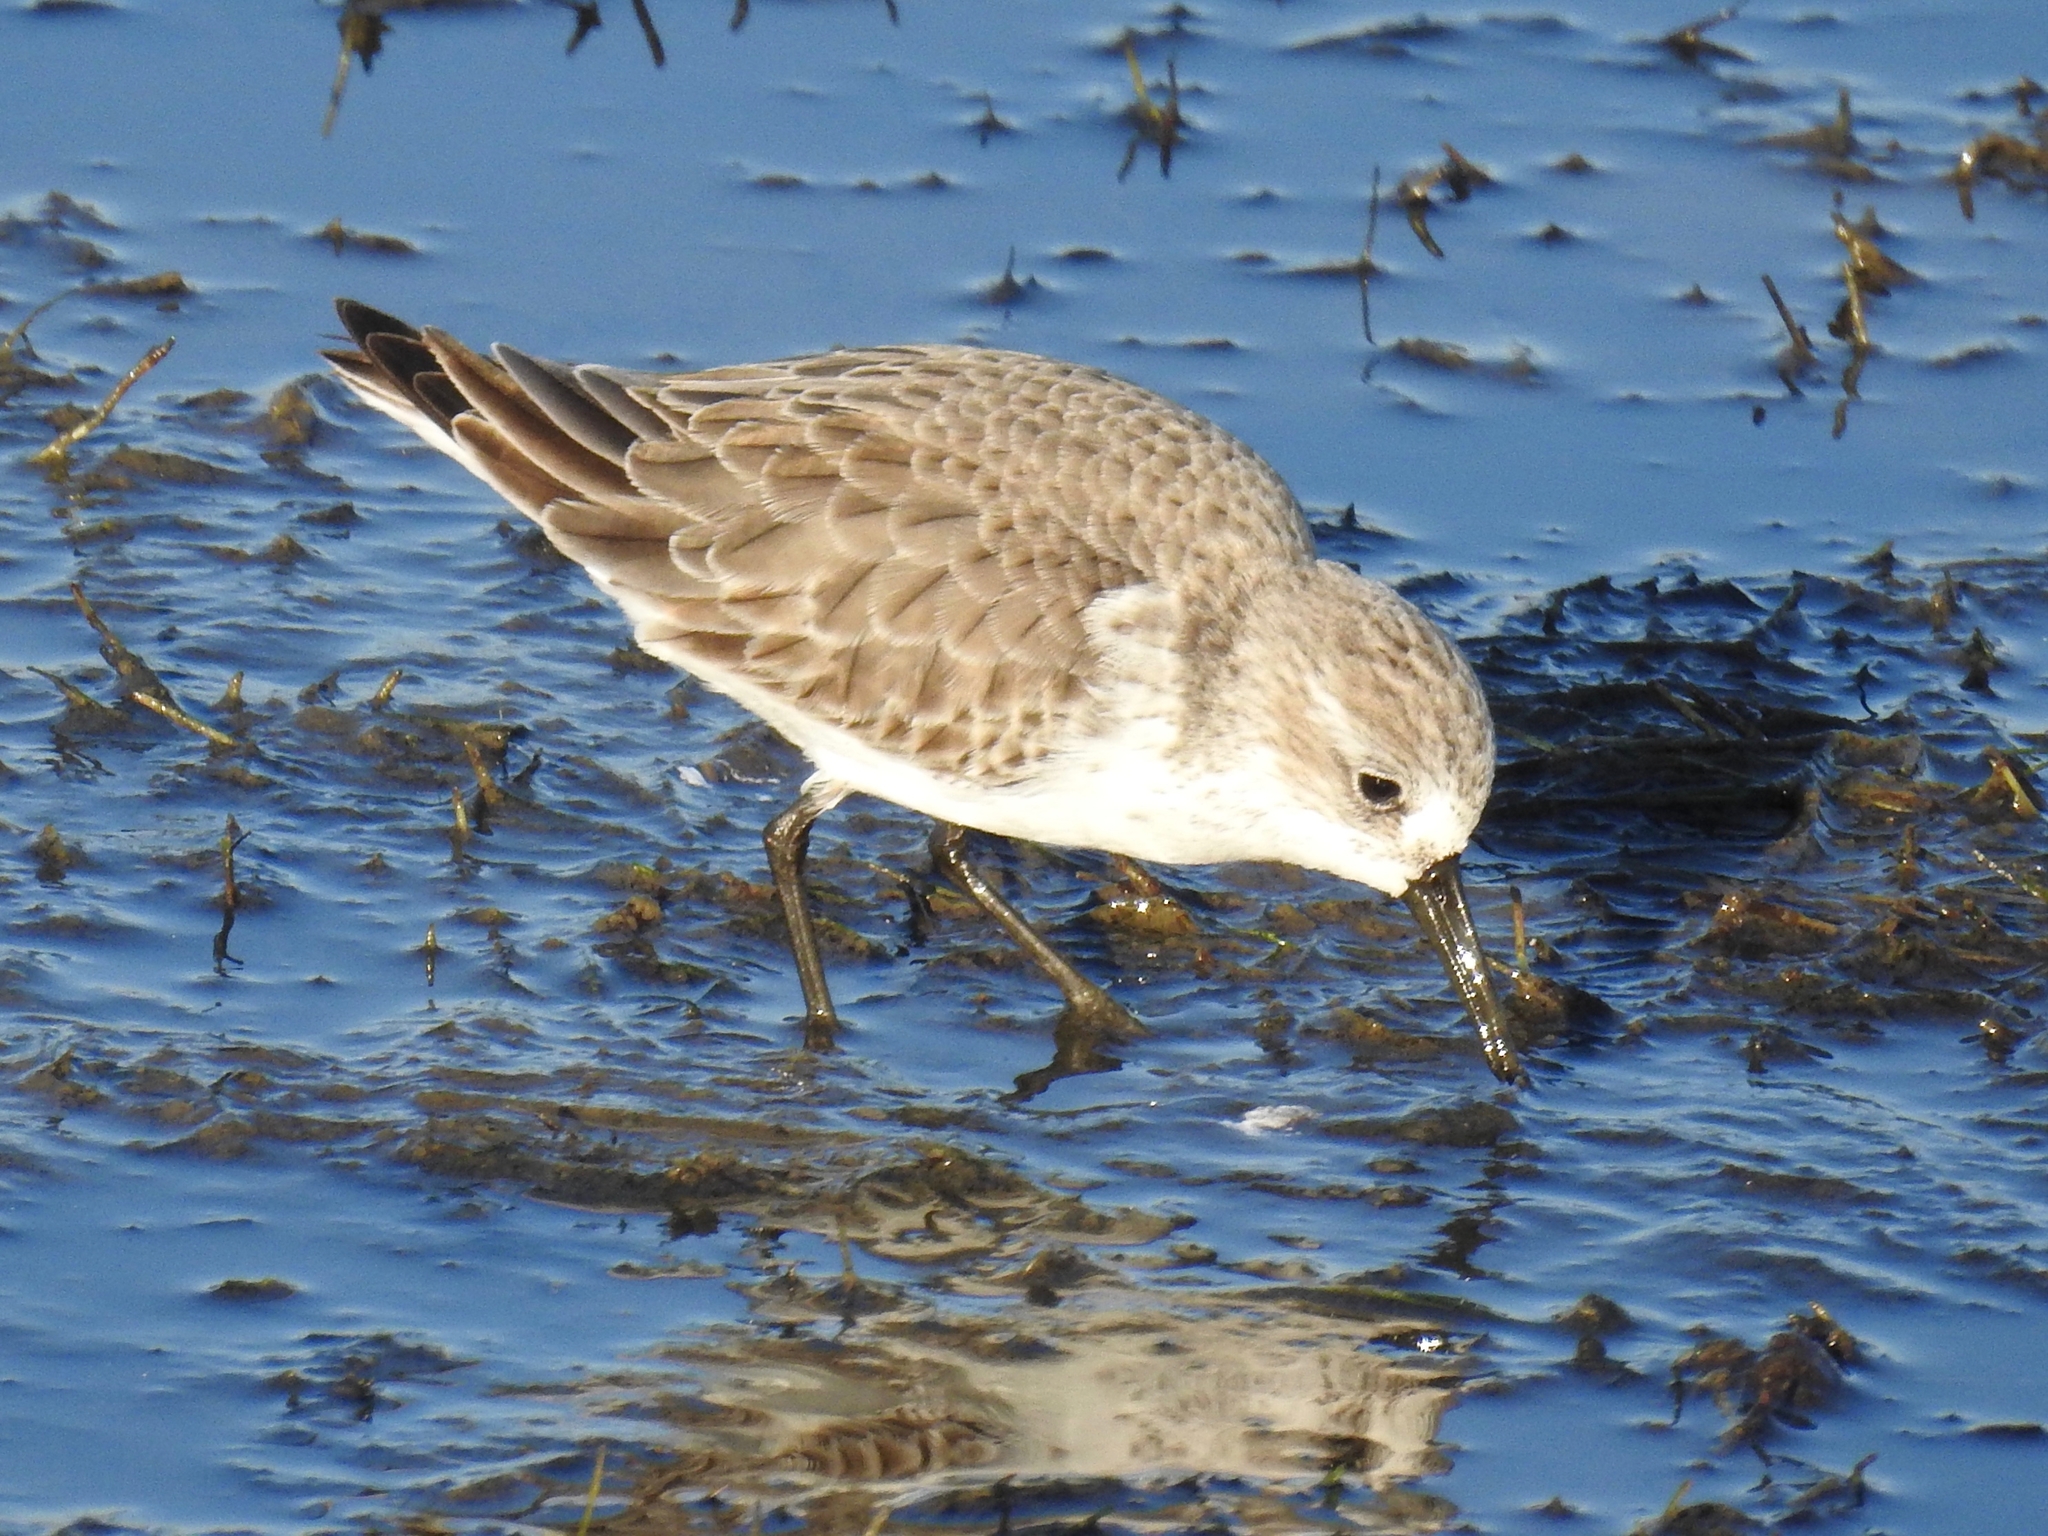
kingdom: Animalia
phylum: Chordata
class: Aves
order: Charadriiformes
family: Scolopacidae
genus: Calidris
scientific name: Calidris mauri
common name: Western sandpiper
